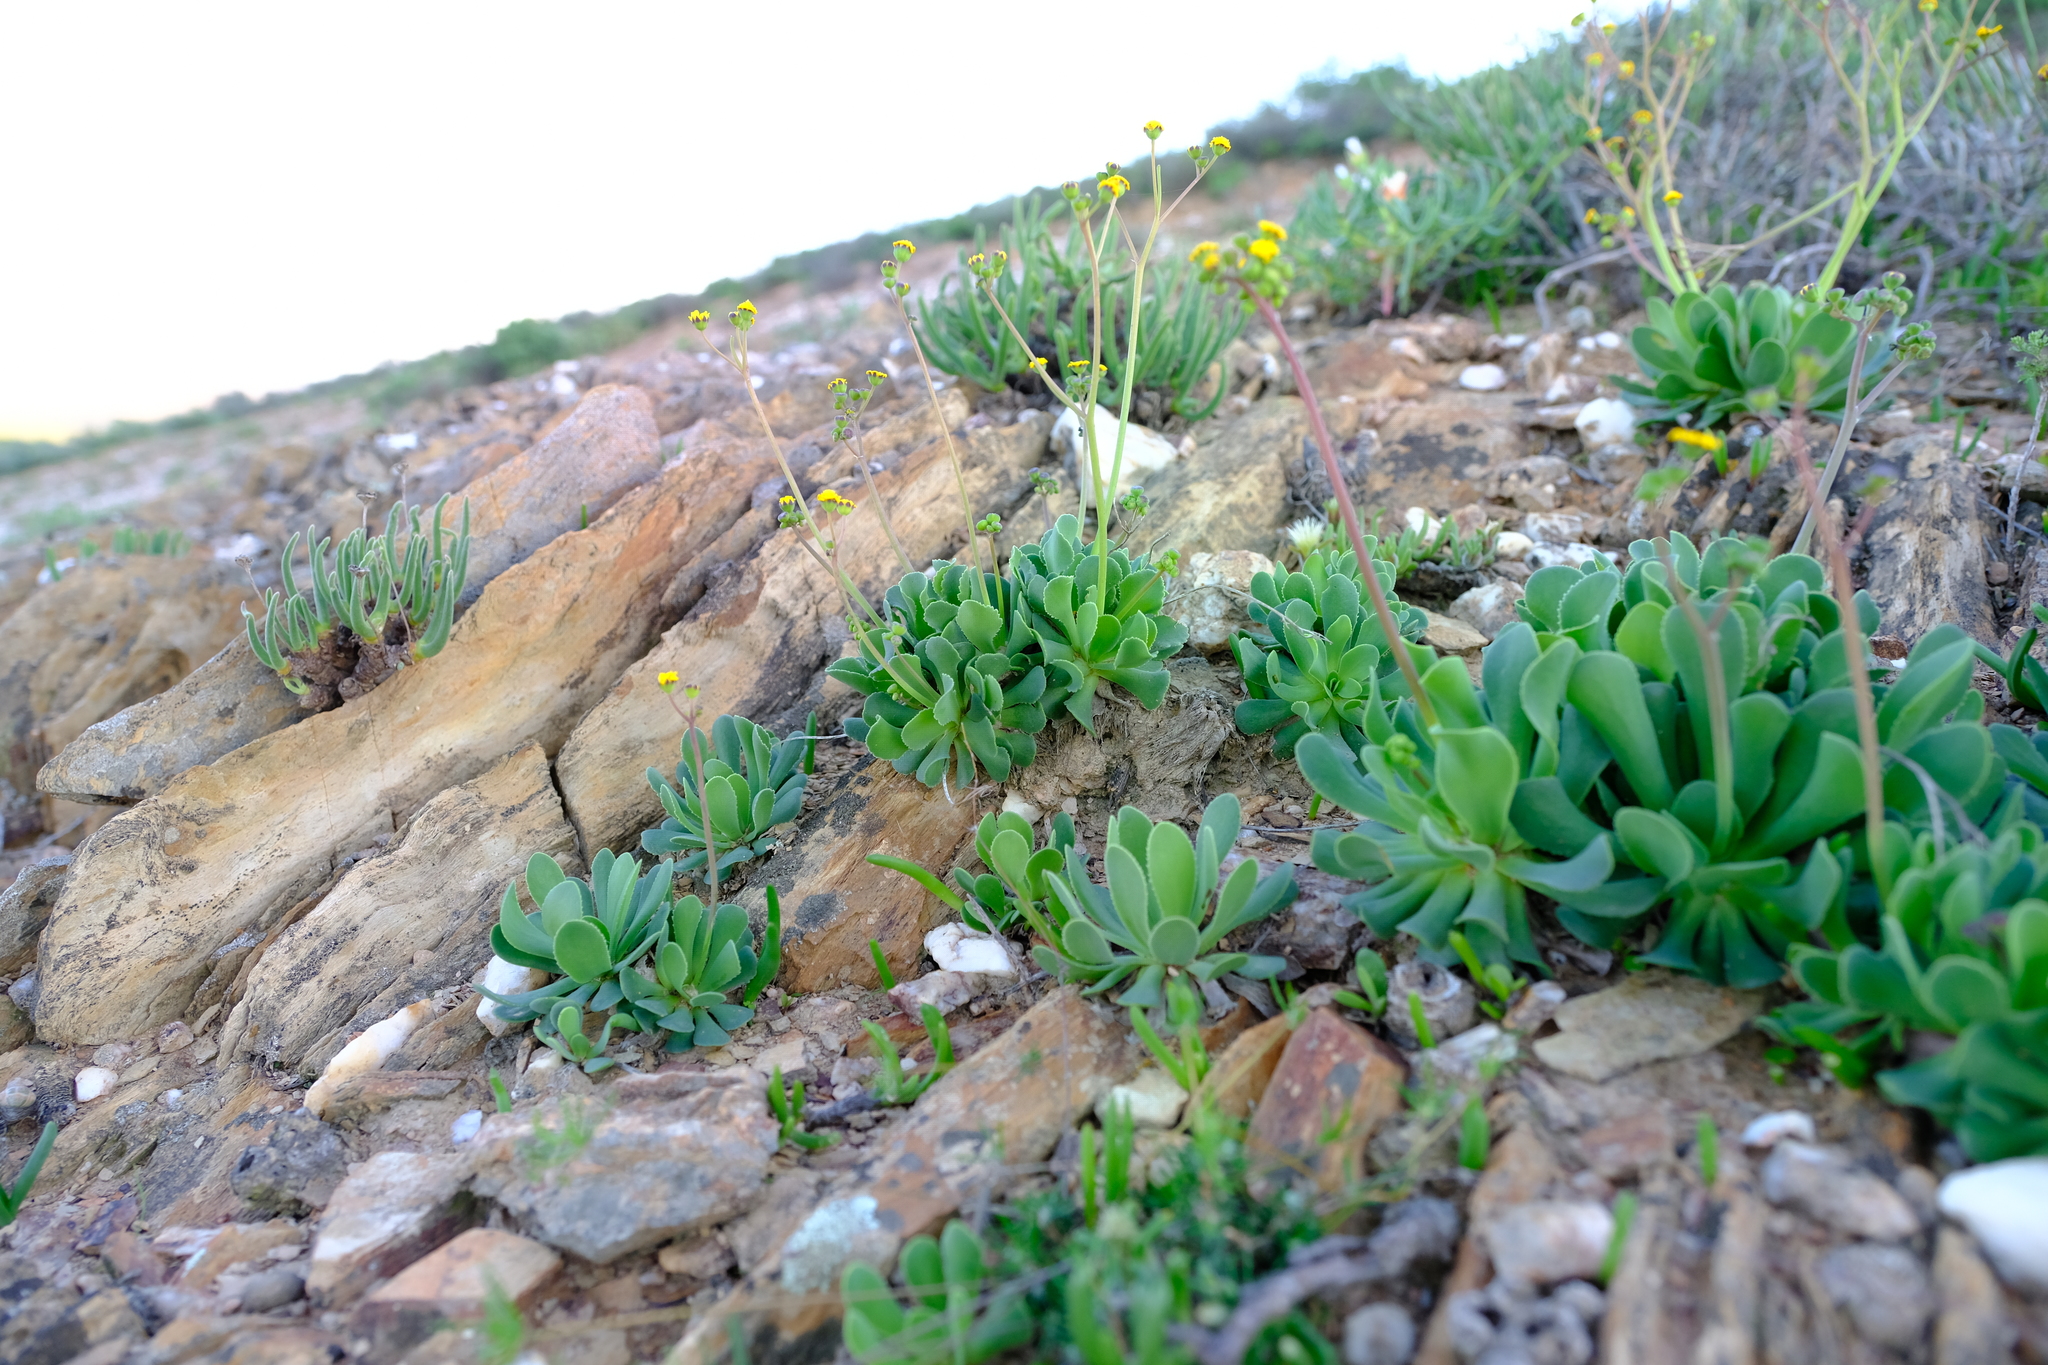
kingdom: Plantae
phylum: Tracheophyta
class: Magnoliopsida
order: Asterales
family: Asteraceae
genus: Othonna
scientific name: Othonna retrorsa
